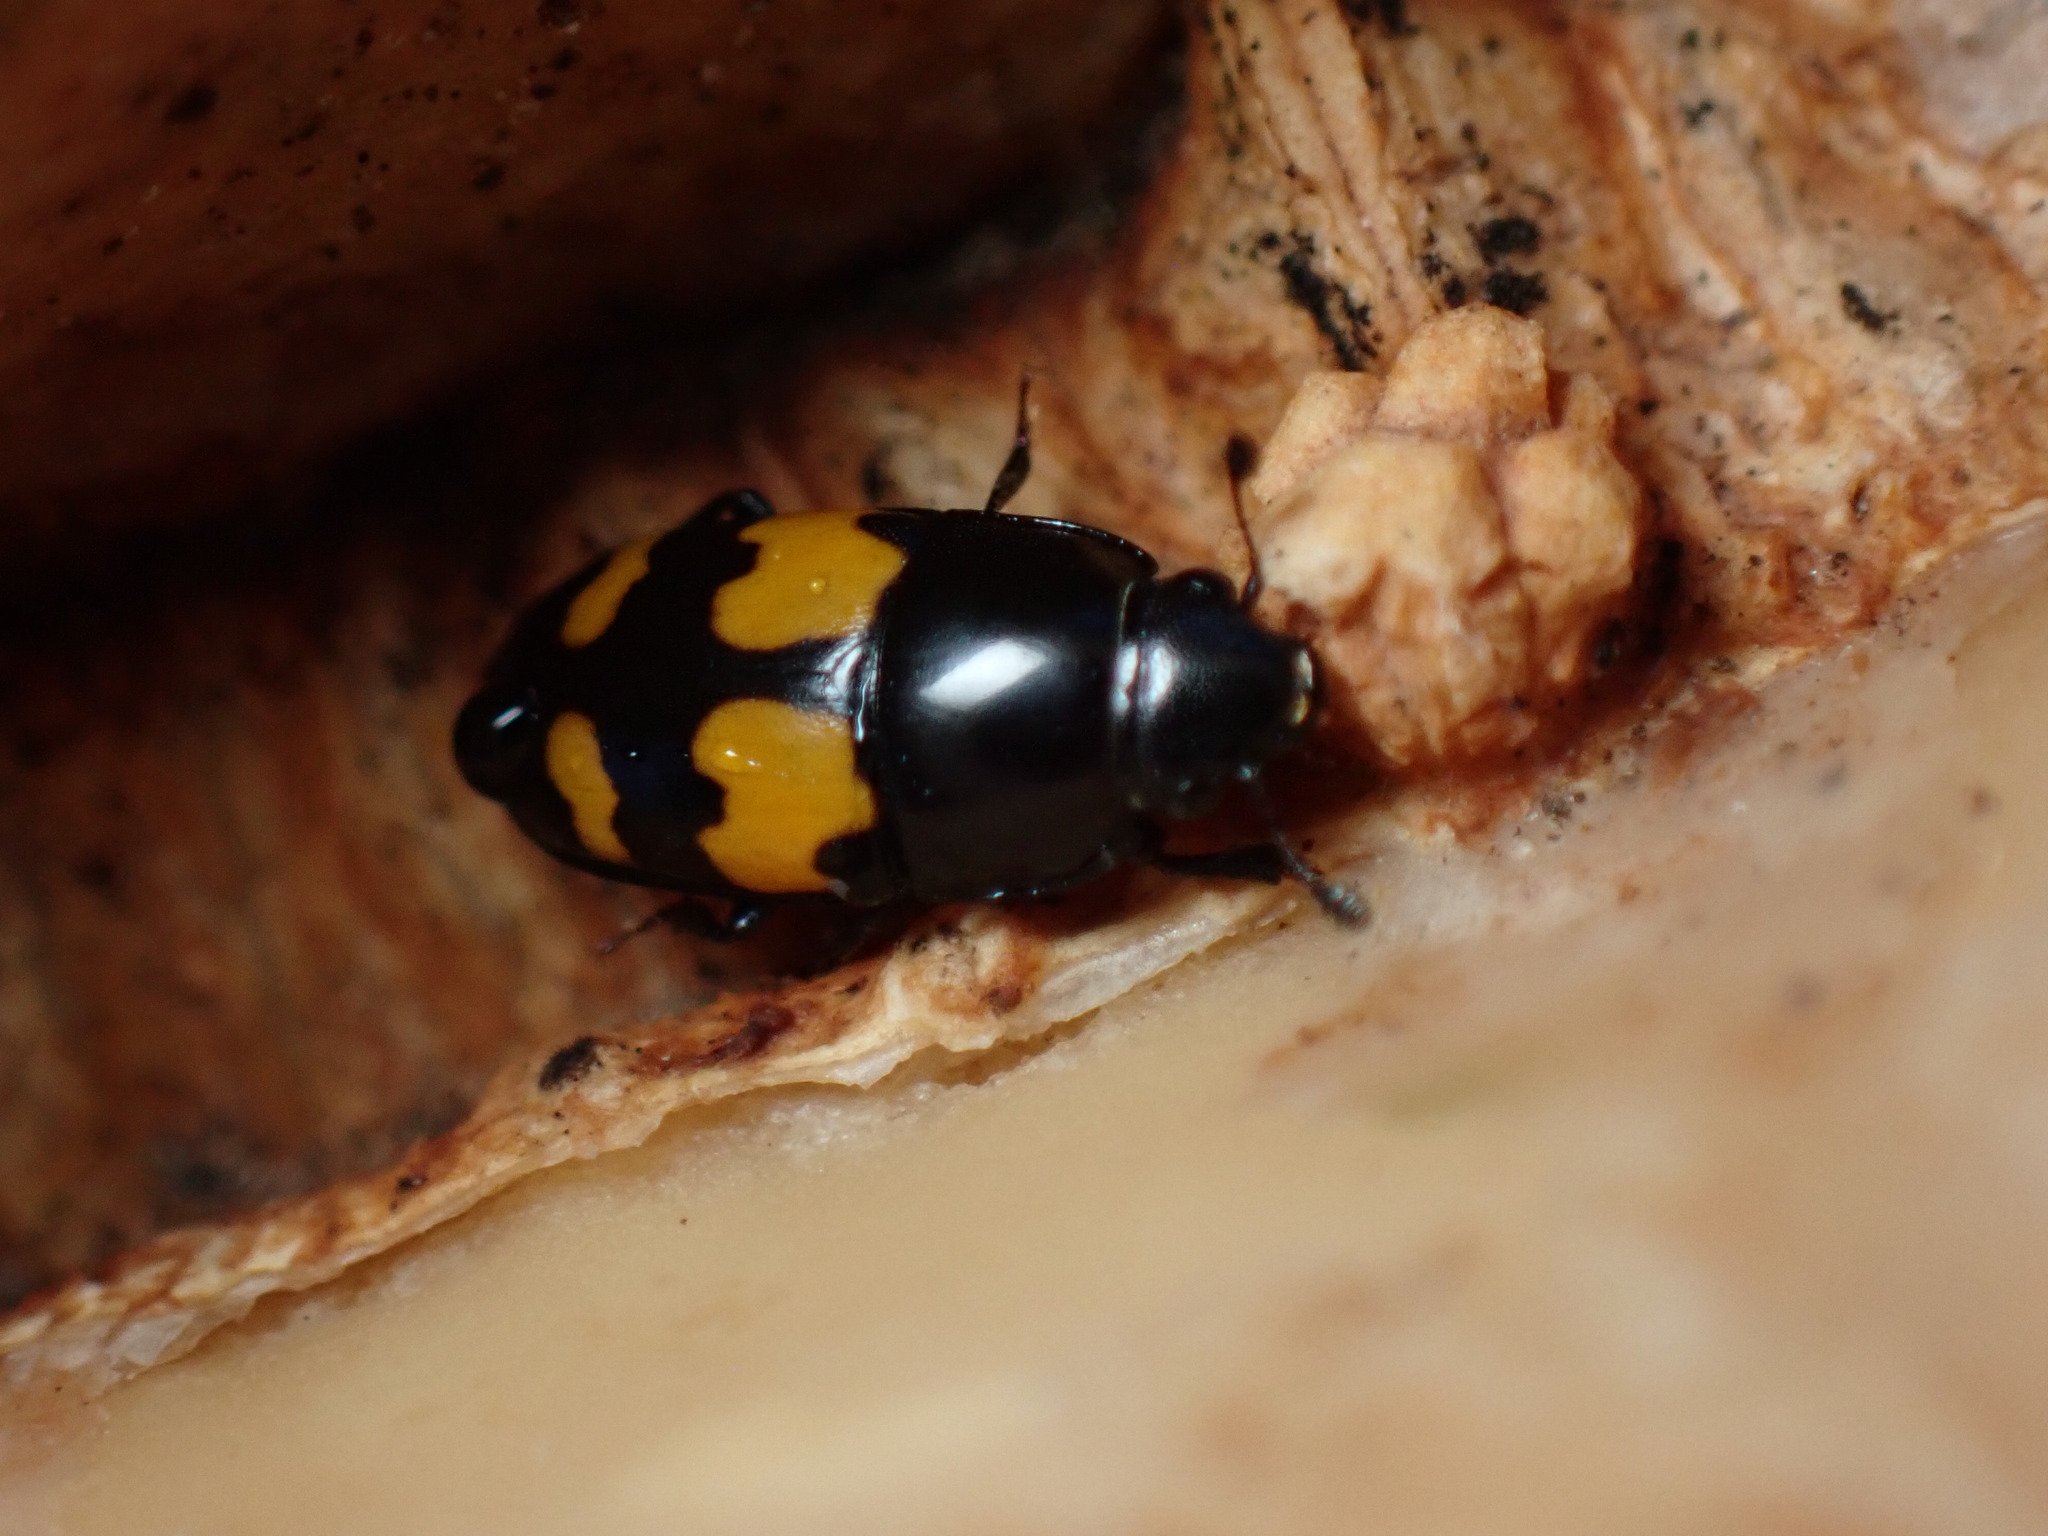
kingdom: Animalia
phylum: Arthropoda
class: Insecta
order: Coleoptera
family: Nitidulidae
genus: Glischrochilus
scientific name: Glischrochilus fasciatus
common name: Picnic beetle
